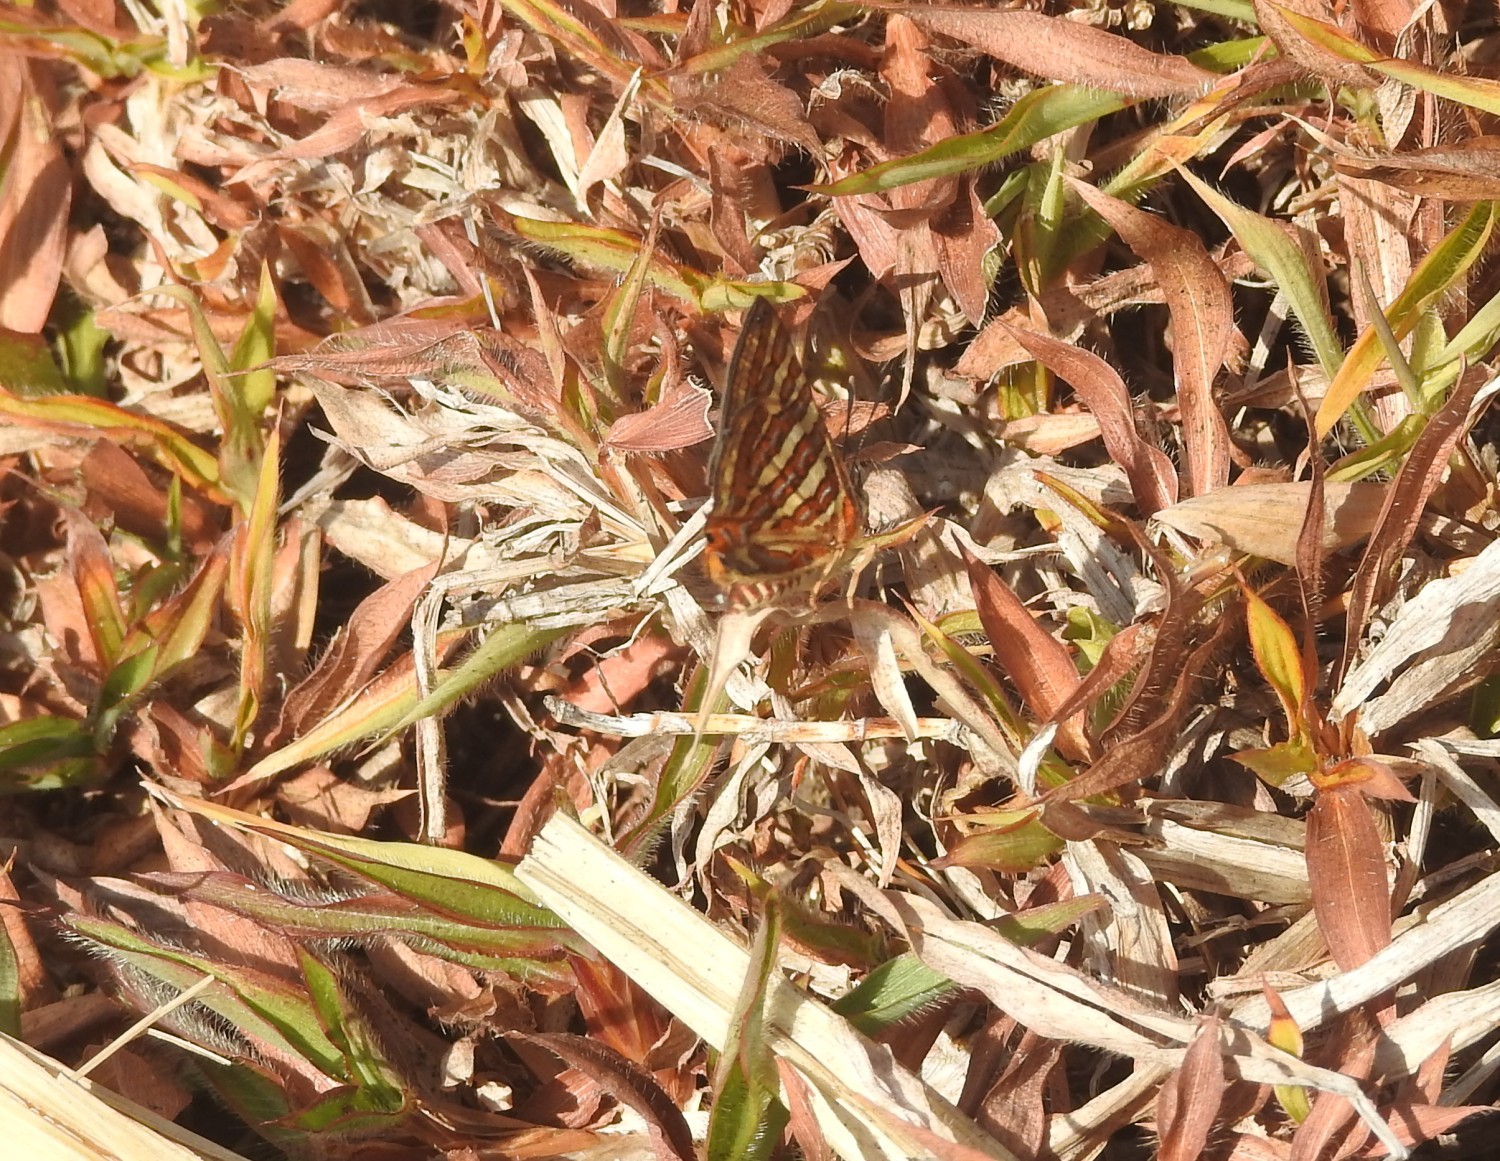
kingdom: Animalia
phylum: Arthropoda
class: Insecta
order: Lepidoptera
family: Lycaenidae
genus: Cigaritis
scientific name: Cigaritis
